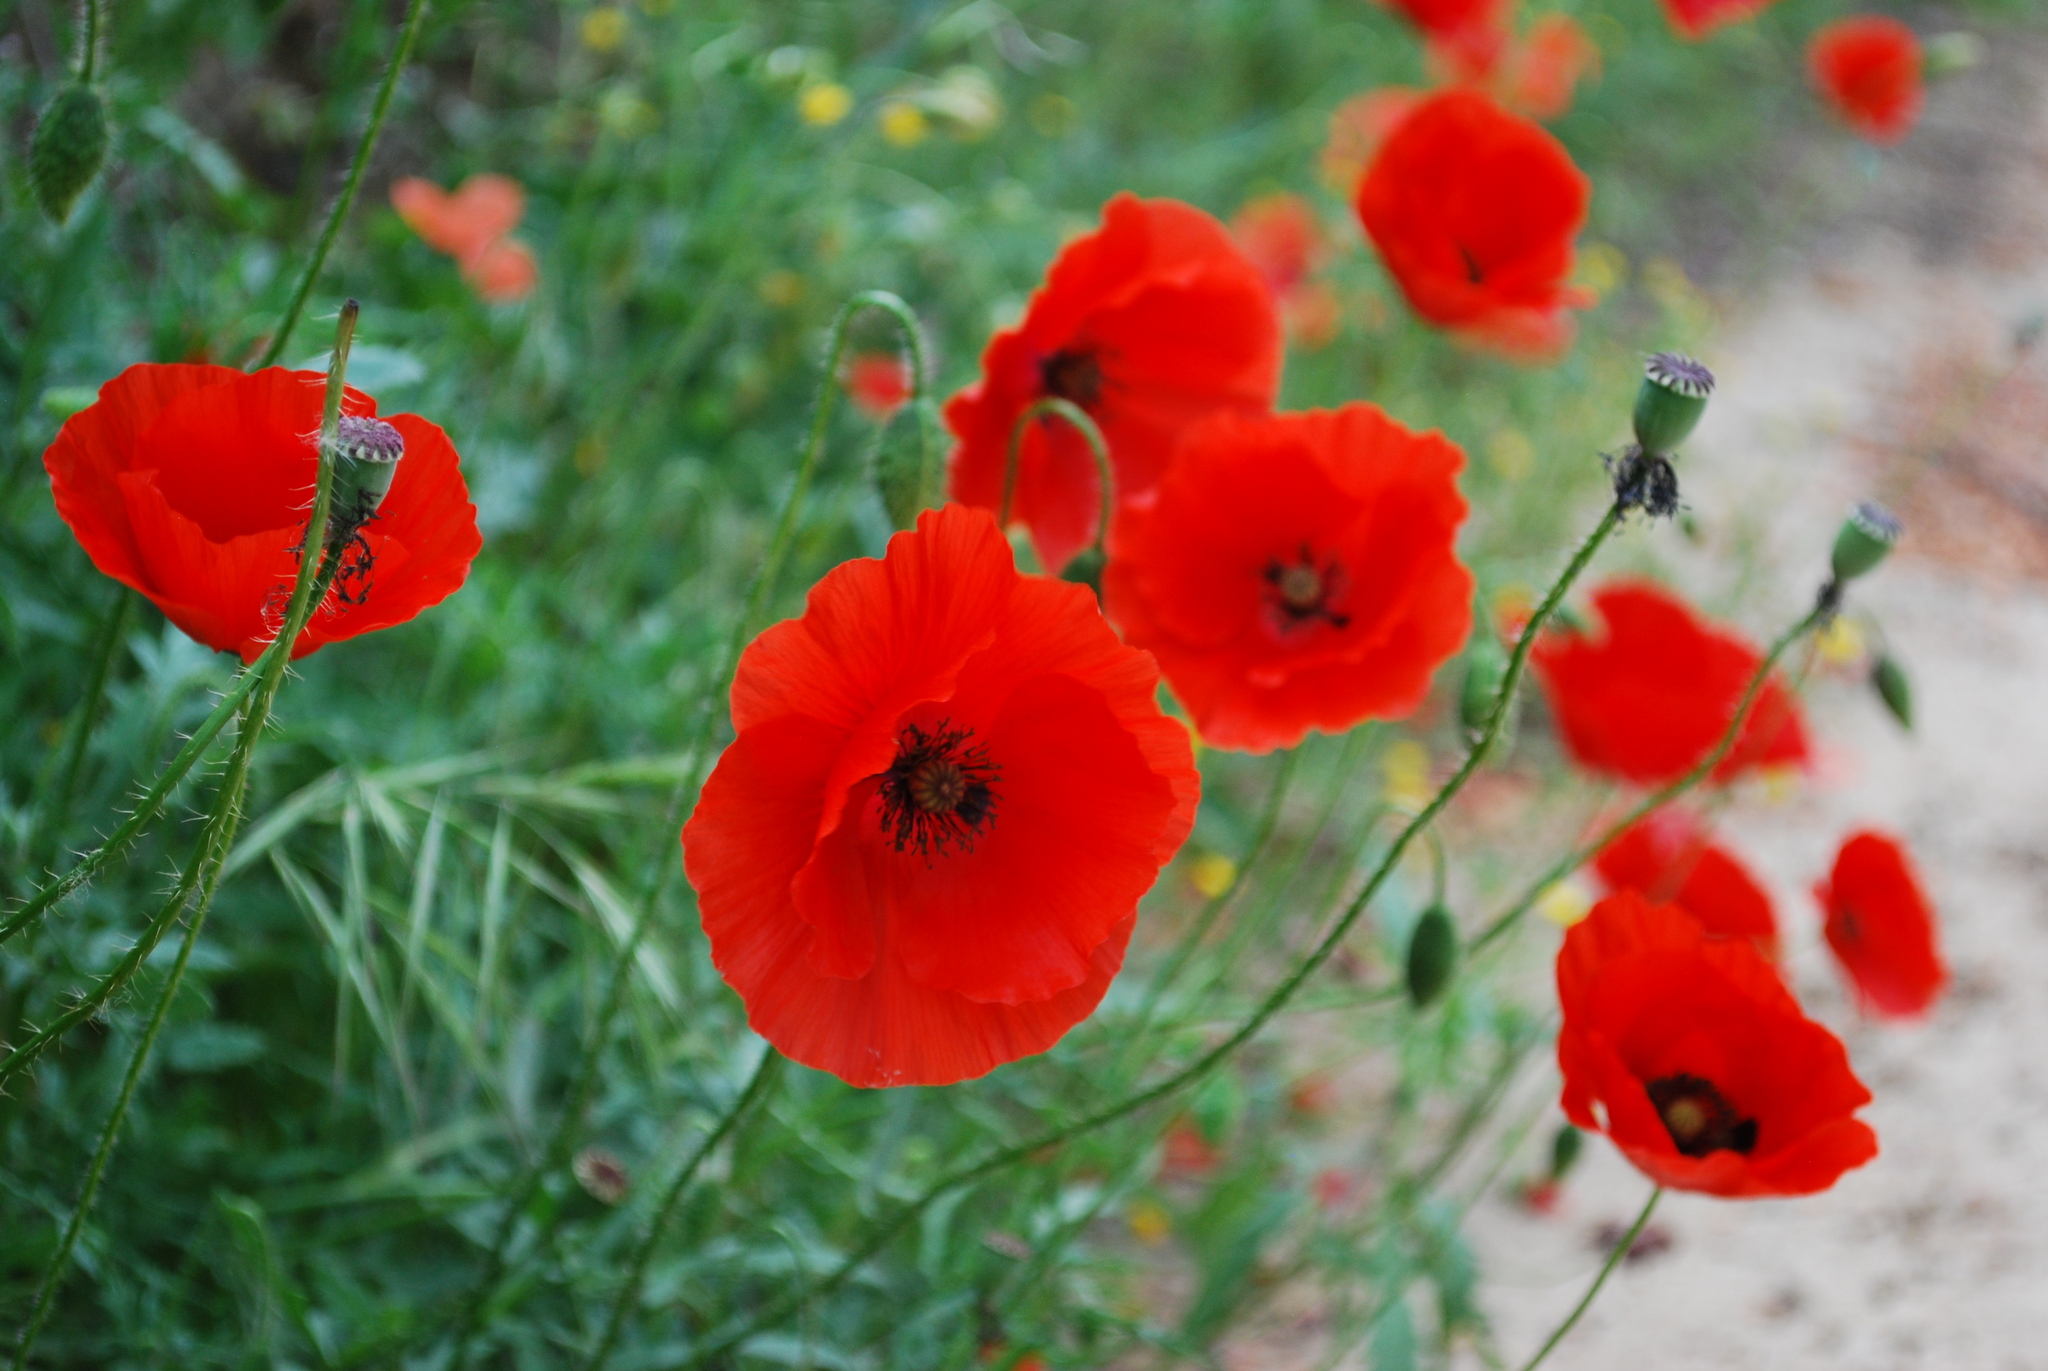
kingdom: Plantae
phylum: Tracheophyta
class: Magnoliopsida
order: Ranunculales
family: Papaveraceae
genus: Papaver
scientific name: Papaver rhoeas
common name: Corn poppy
